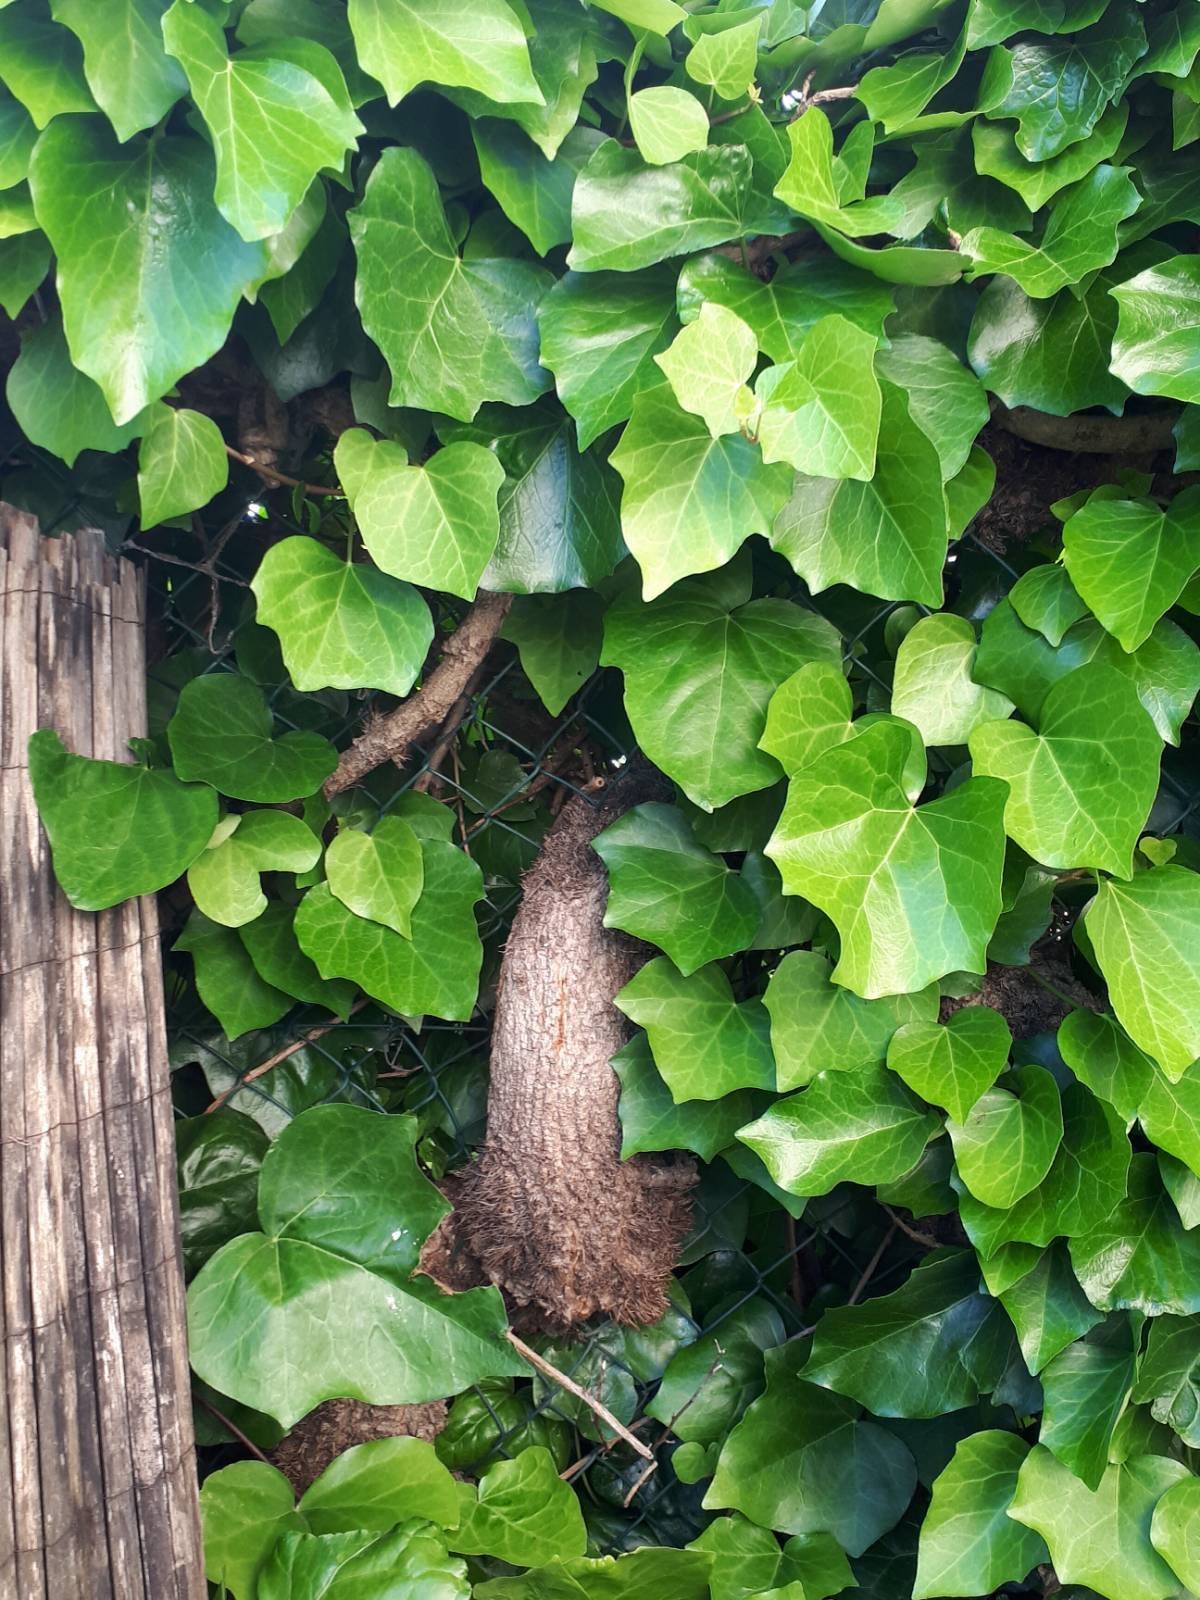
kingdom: Plantae
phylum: Tracheophyta
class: Magnoliopsida
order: Apiales
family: Araliaceae
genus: Hedera
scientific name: Hedera helix
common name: Ivy
